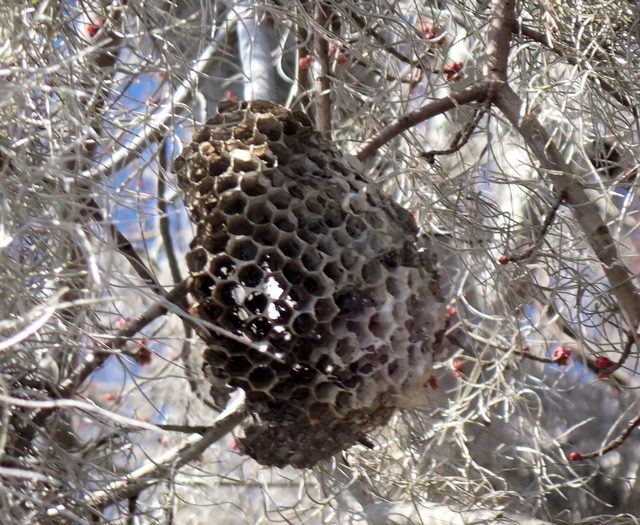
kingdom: Animalia
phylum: Arthropoda
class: Insecta
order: Hymenoptera
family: Vespidae
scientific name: Vespidae
